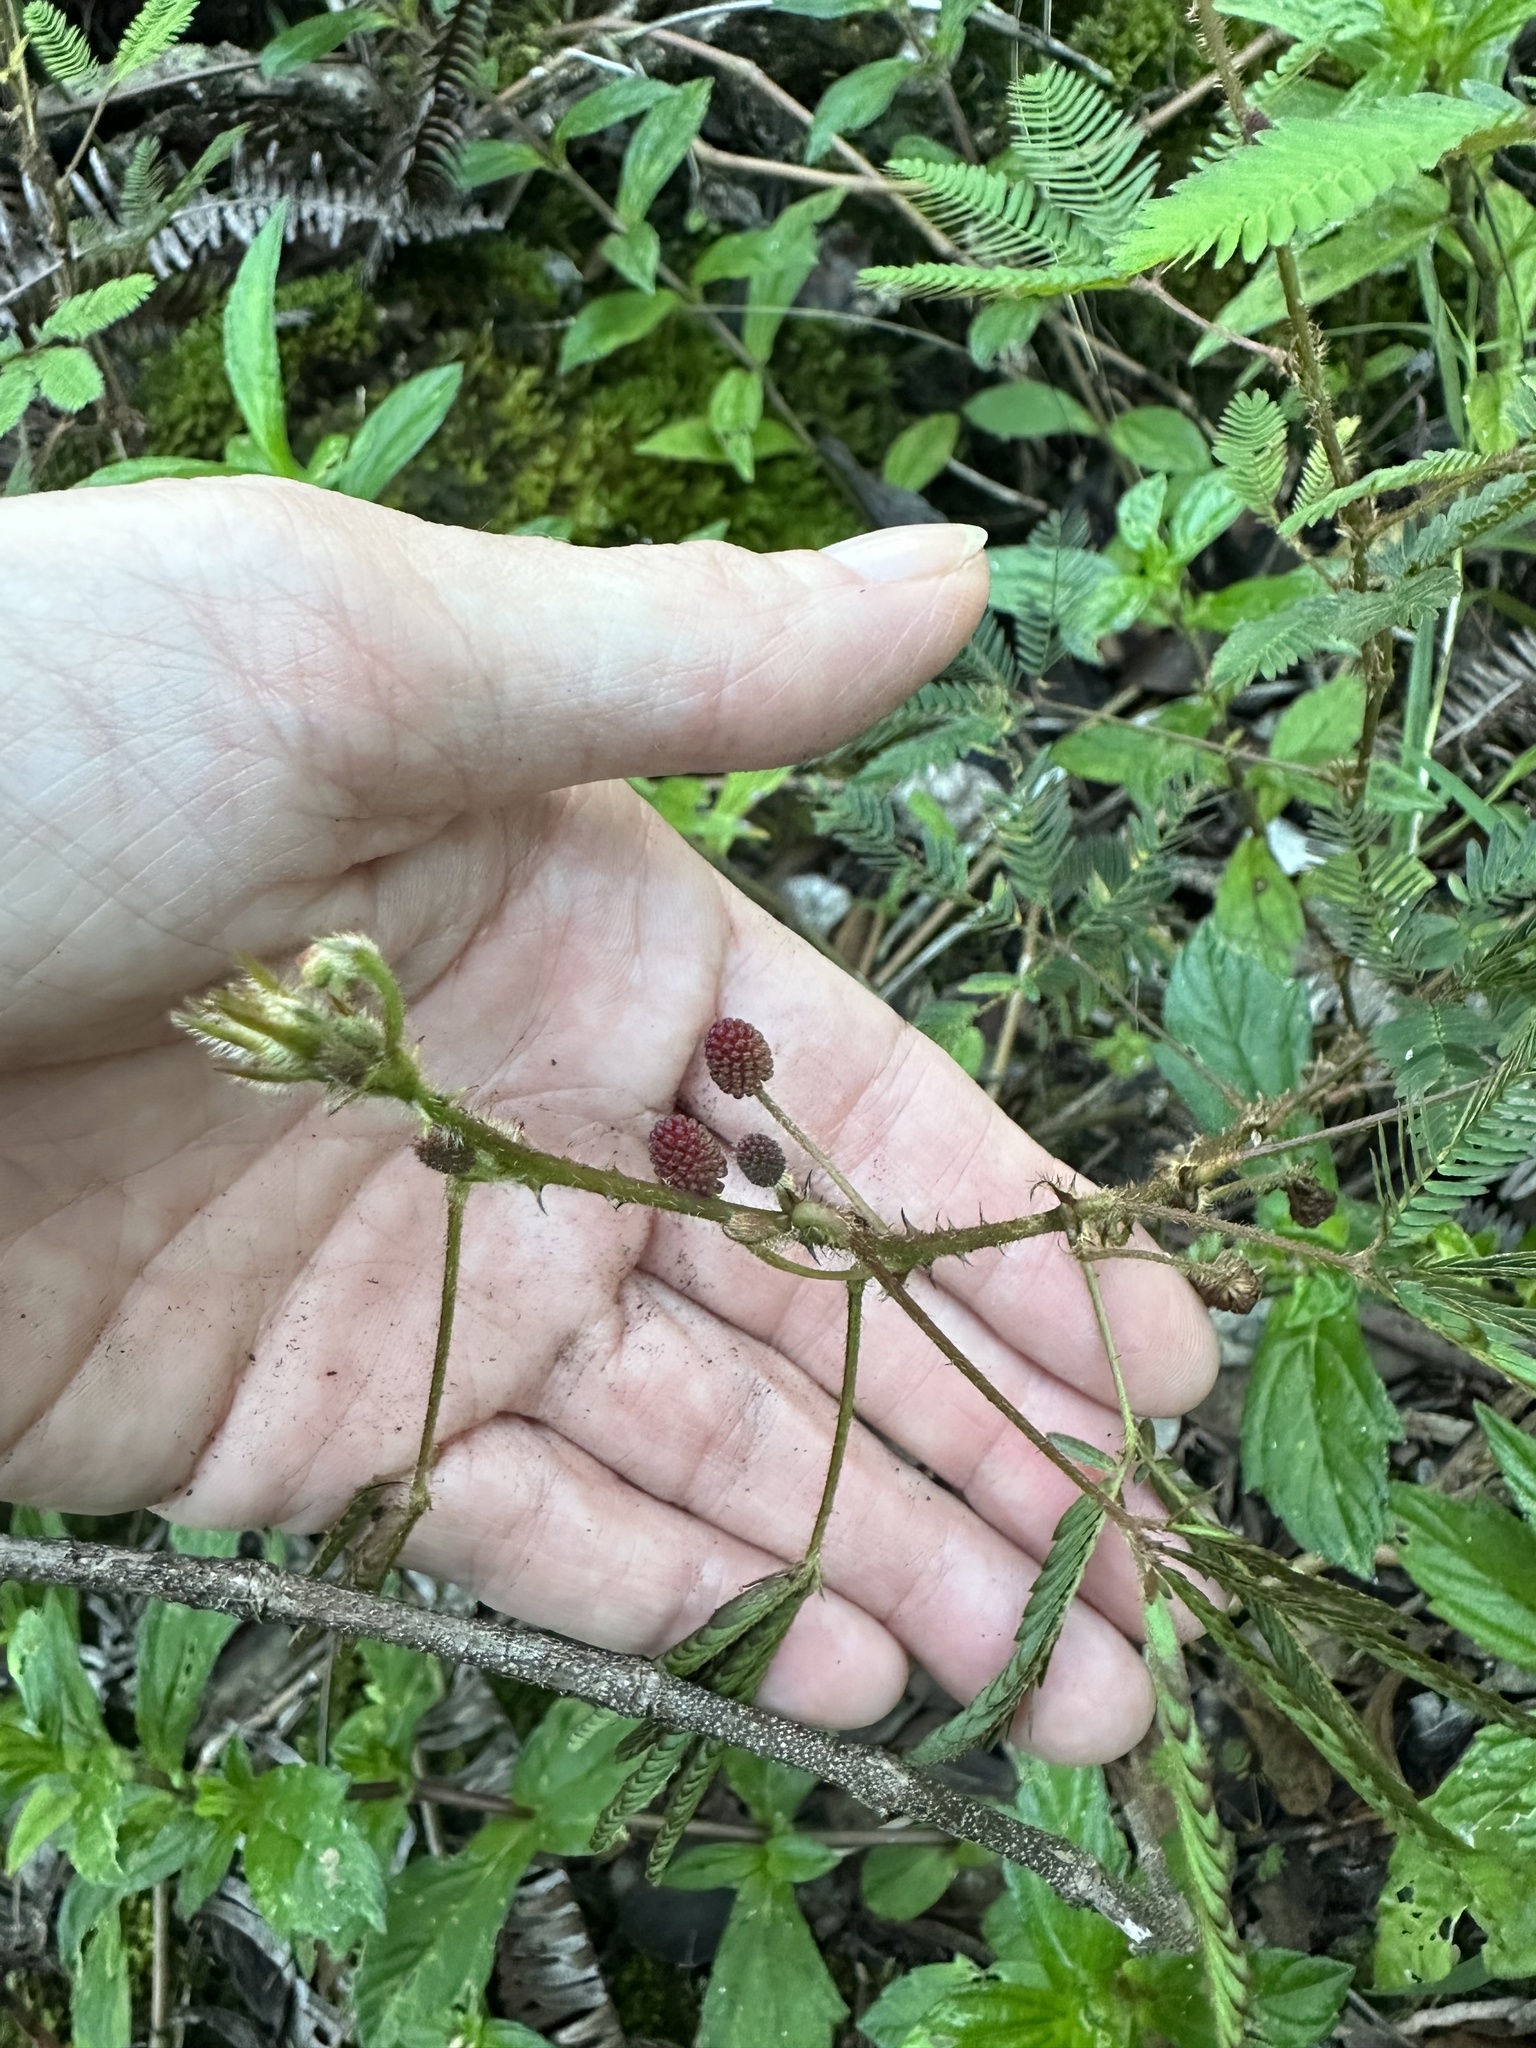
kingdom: Plantae
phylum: Tracheophyta
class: Magnoliopsida
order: Fabales
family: Fabaceae
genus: Mimosa
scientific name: Mimosa pudica
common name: Sensitive plant
